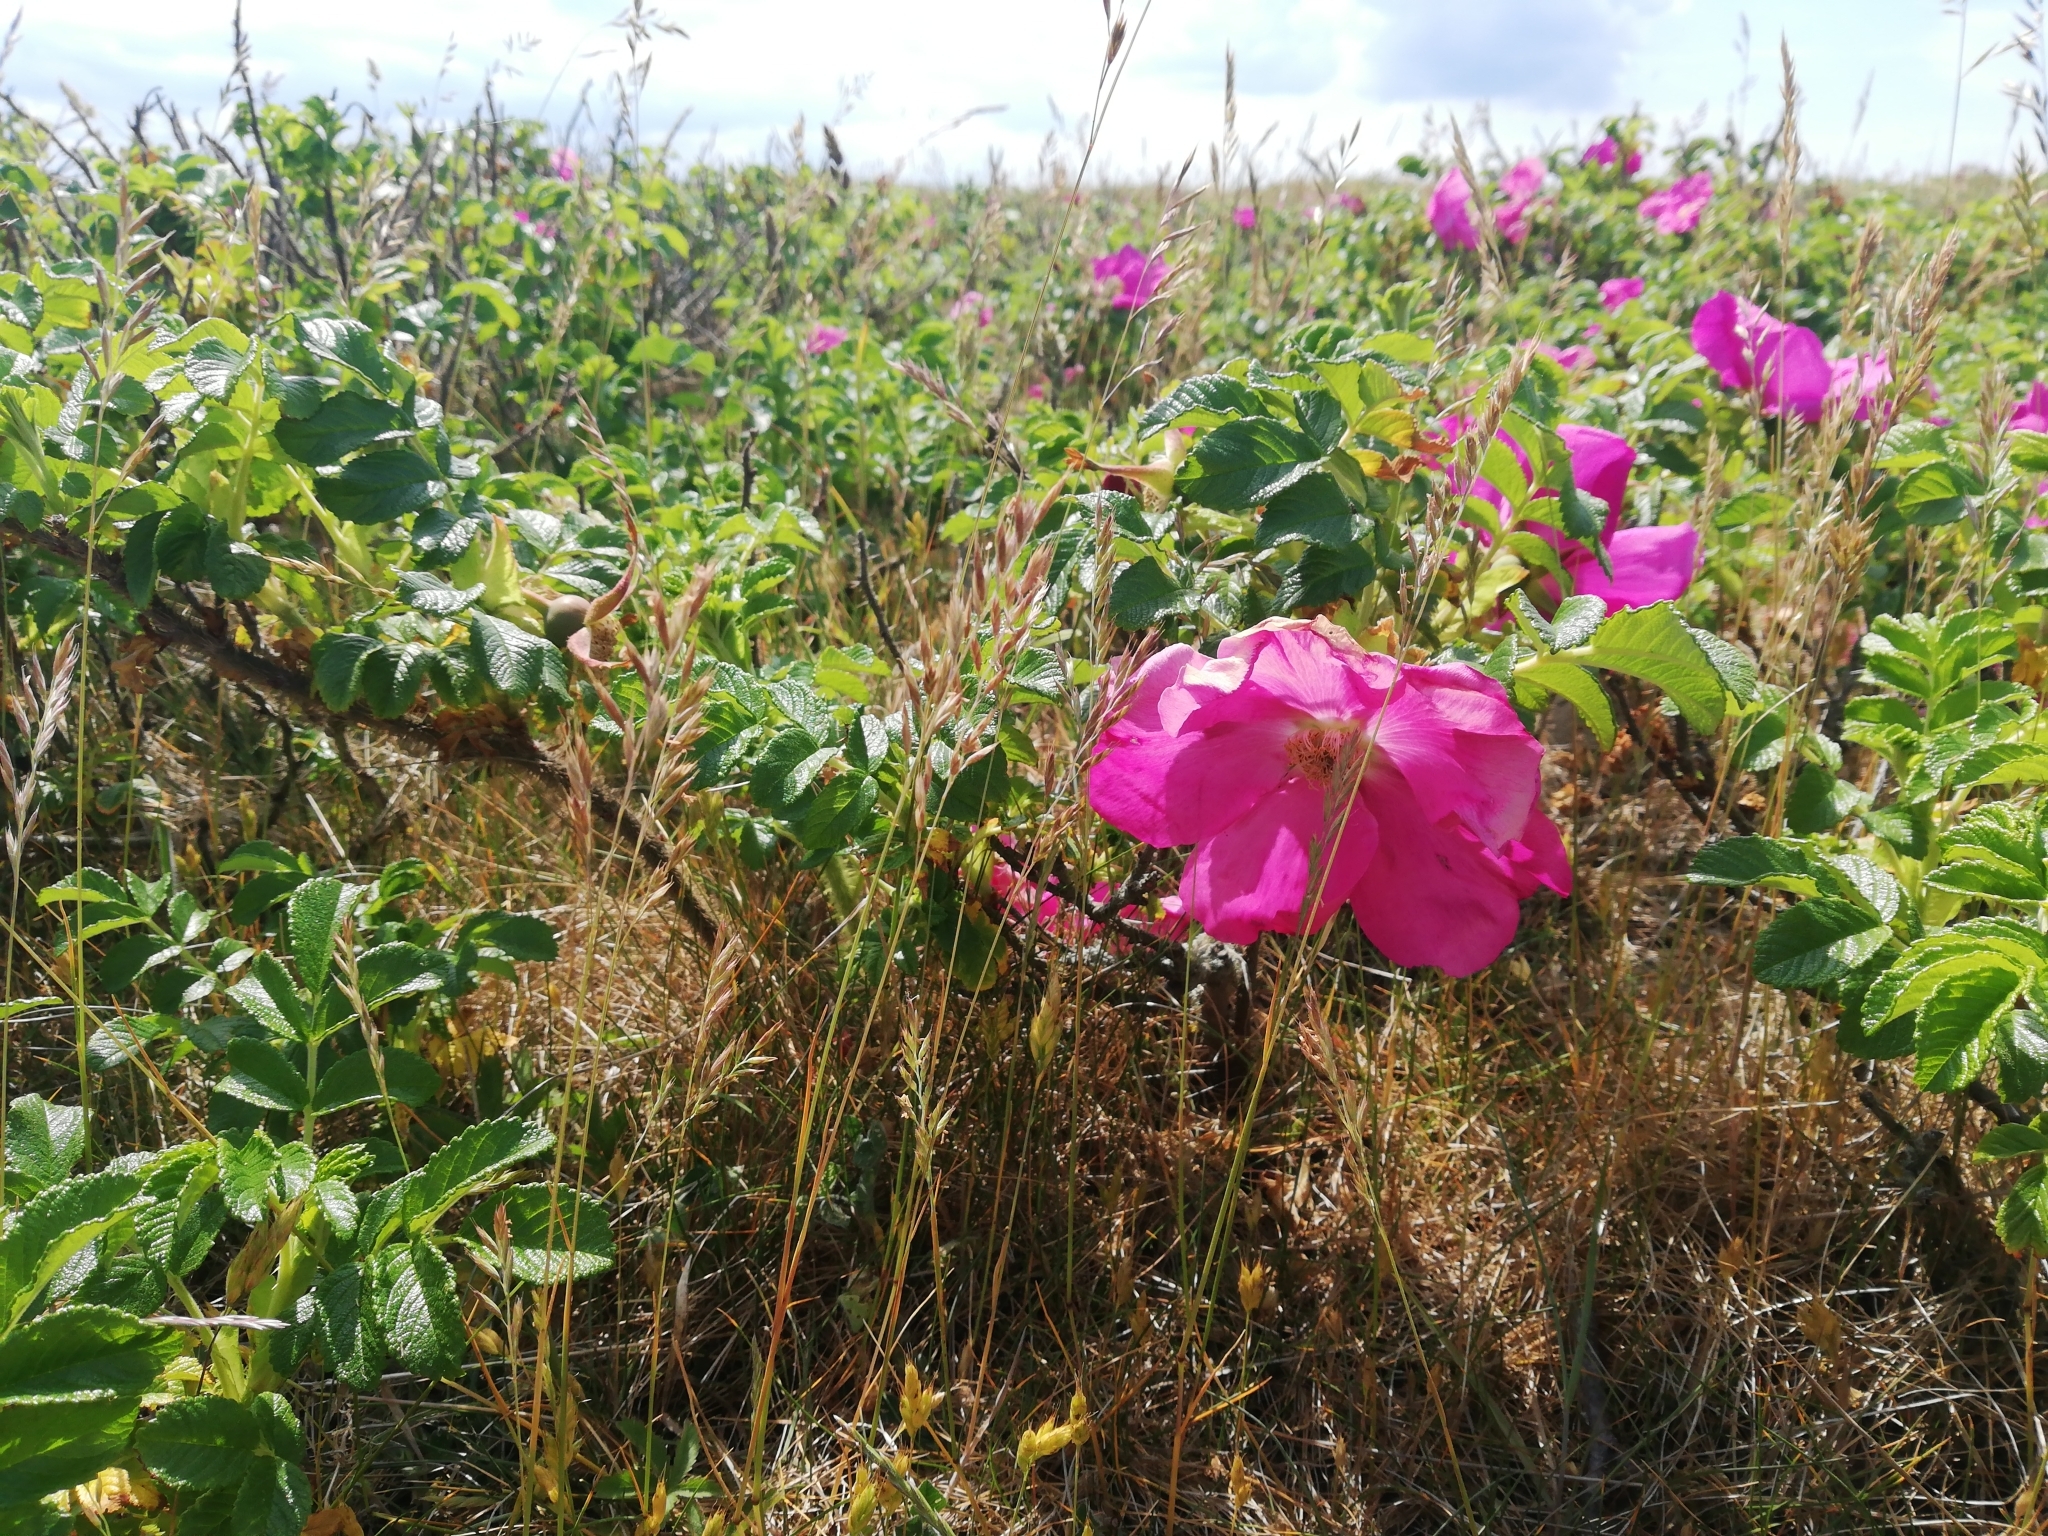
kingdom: Plantae
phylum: Tracheophyta
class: Magnoliopsida
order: Rosales
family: Rosaceae
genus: Rosa
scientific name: Rosa rugosa
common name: Japanese rose
